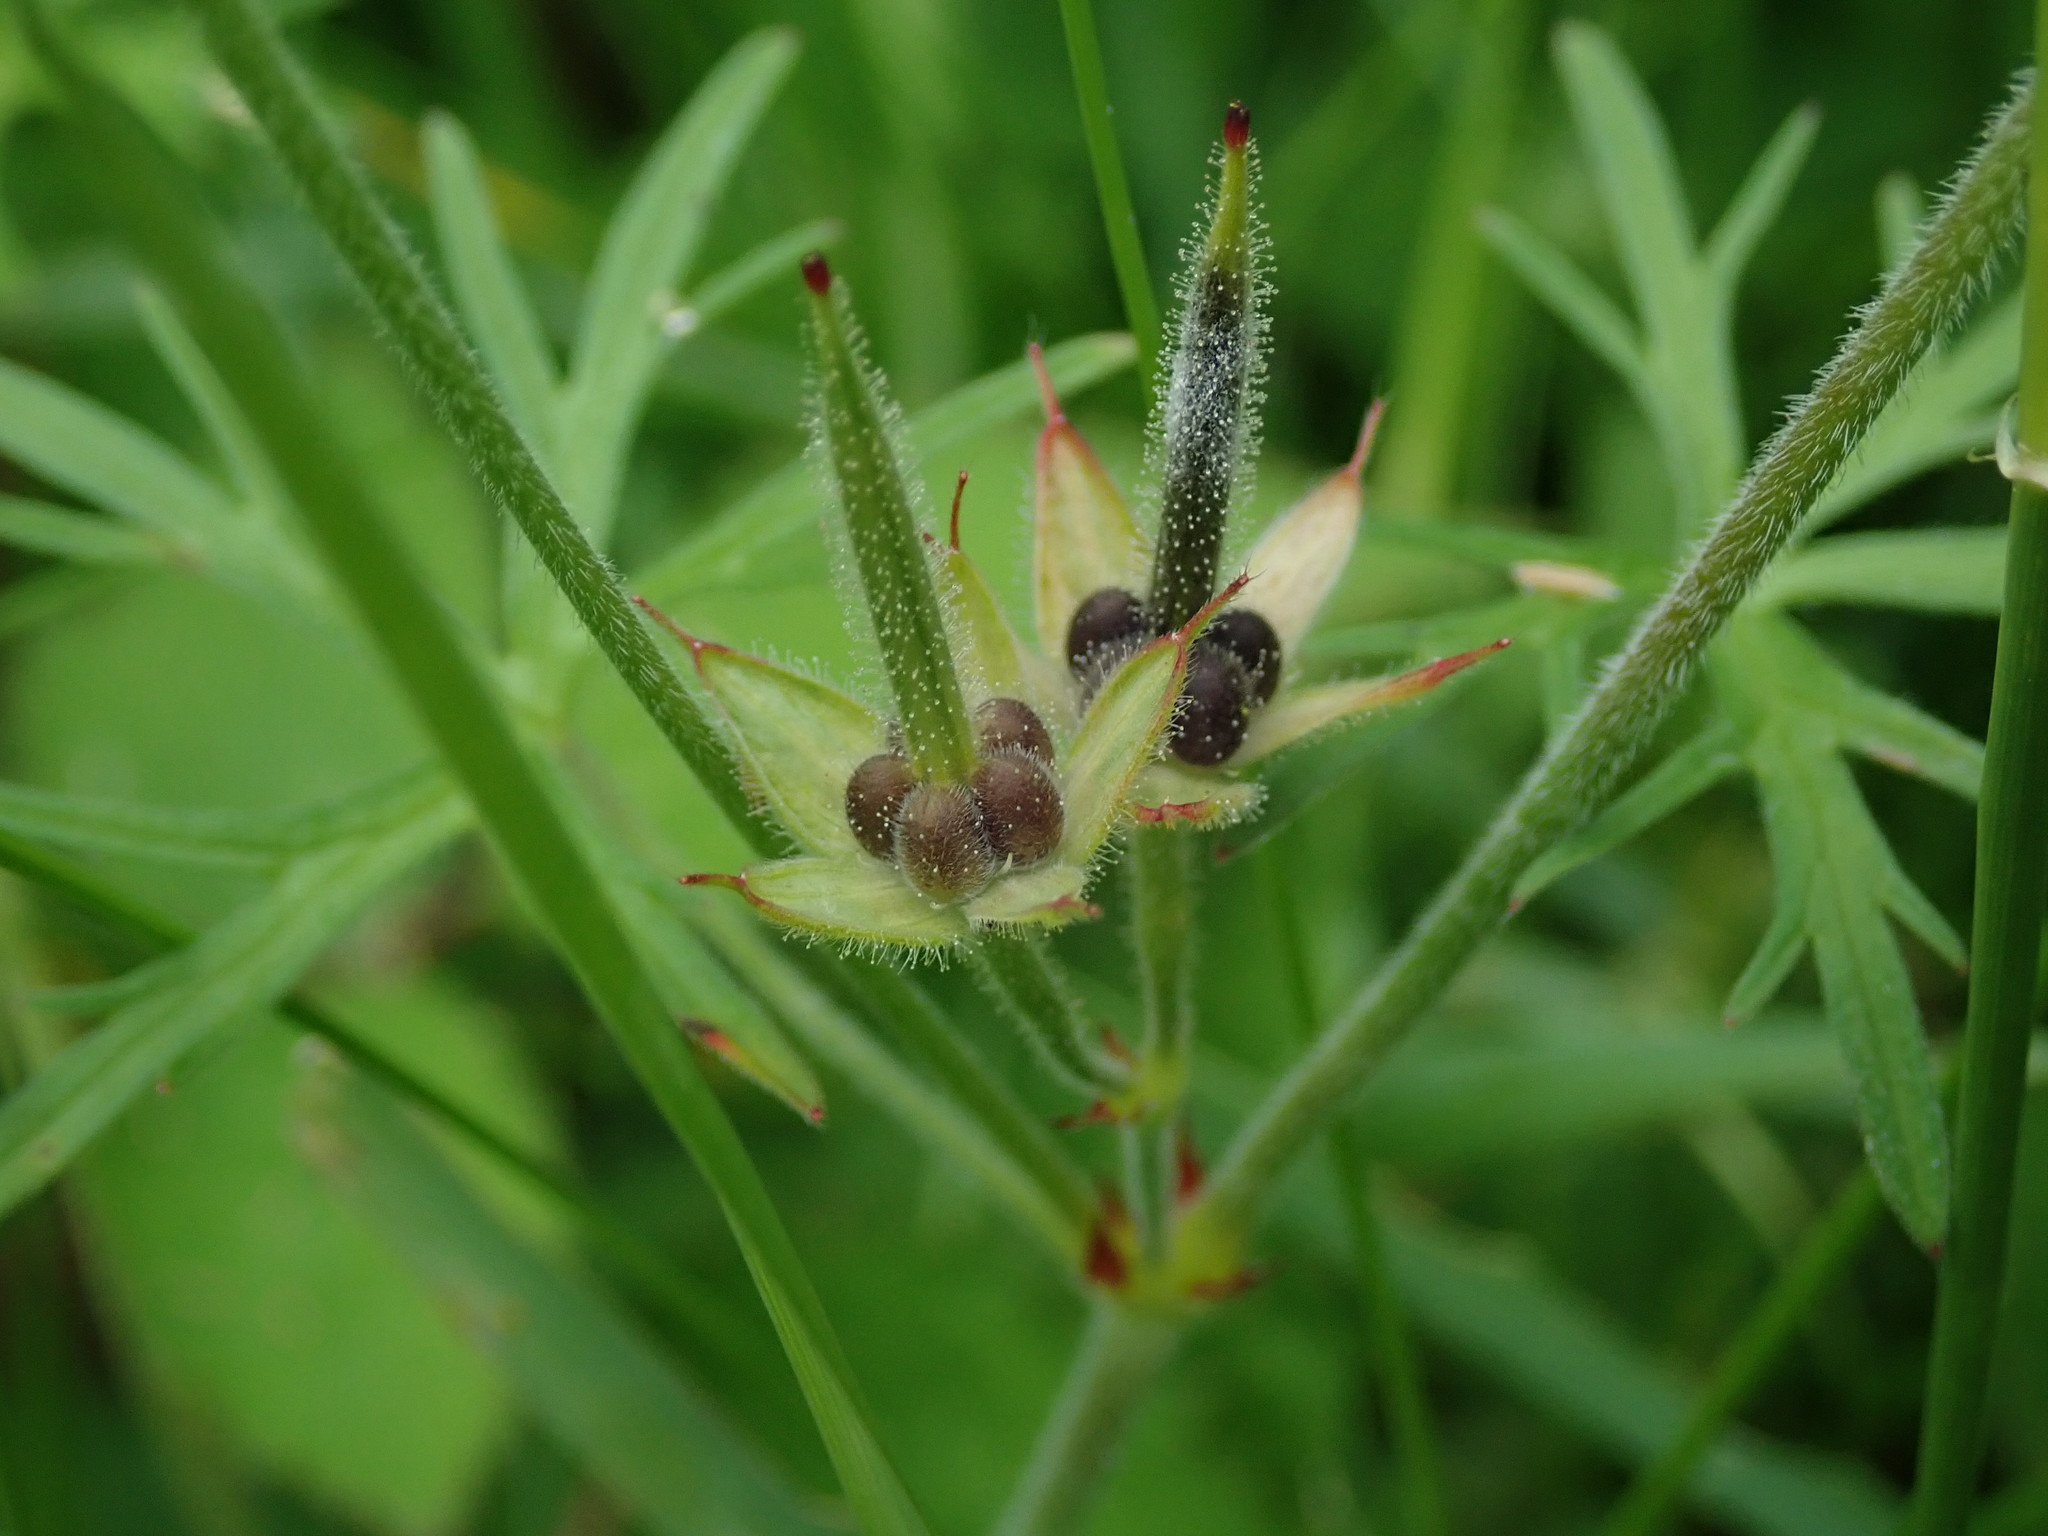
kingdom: Plantae
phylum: Tracheophyta
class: Magnoliopsida
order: Geraniales
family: Geraniaceae
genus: Geranium
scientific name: Geranium dissectum
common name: Cut-leaved crane's-bill
